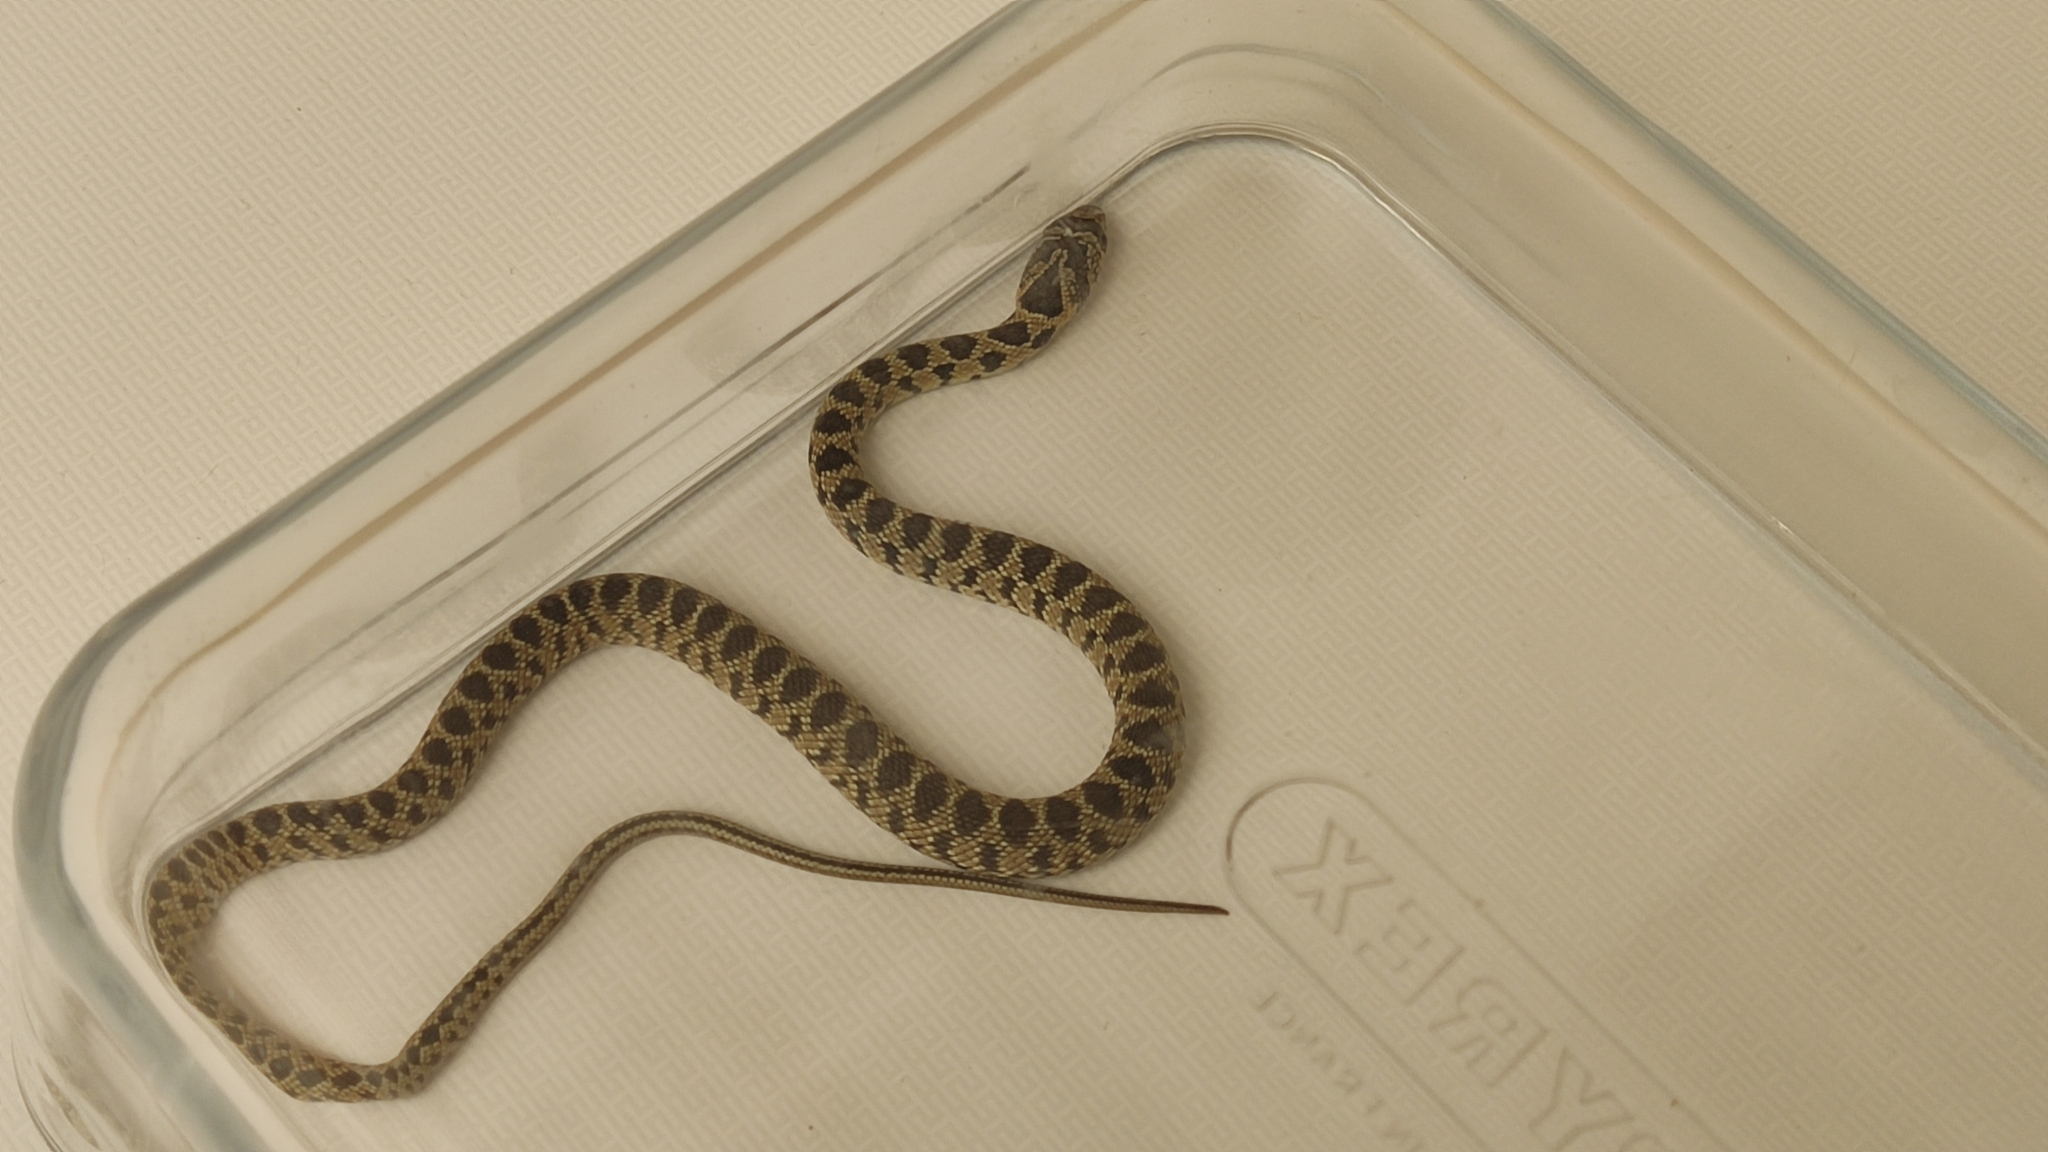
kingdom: Animalia
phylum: Chordata
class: Squamata
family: Colubridae
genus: Hemorrhois
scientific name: Hemorrhois hippocrepis
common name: Horseshoe whip snake
